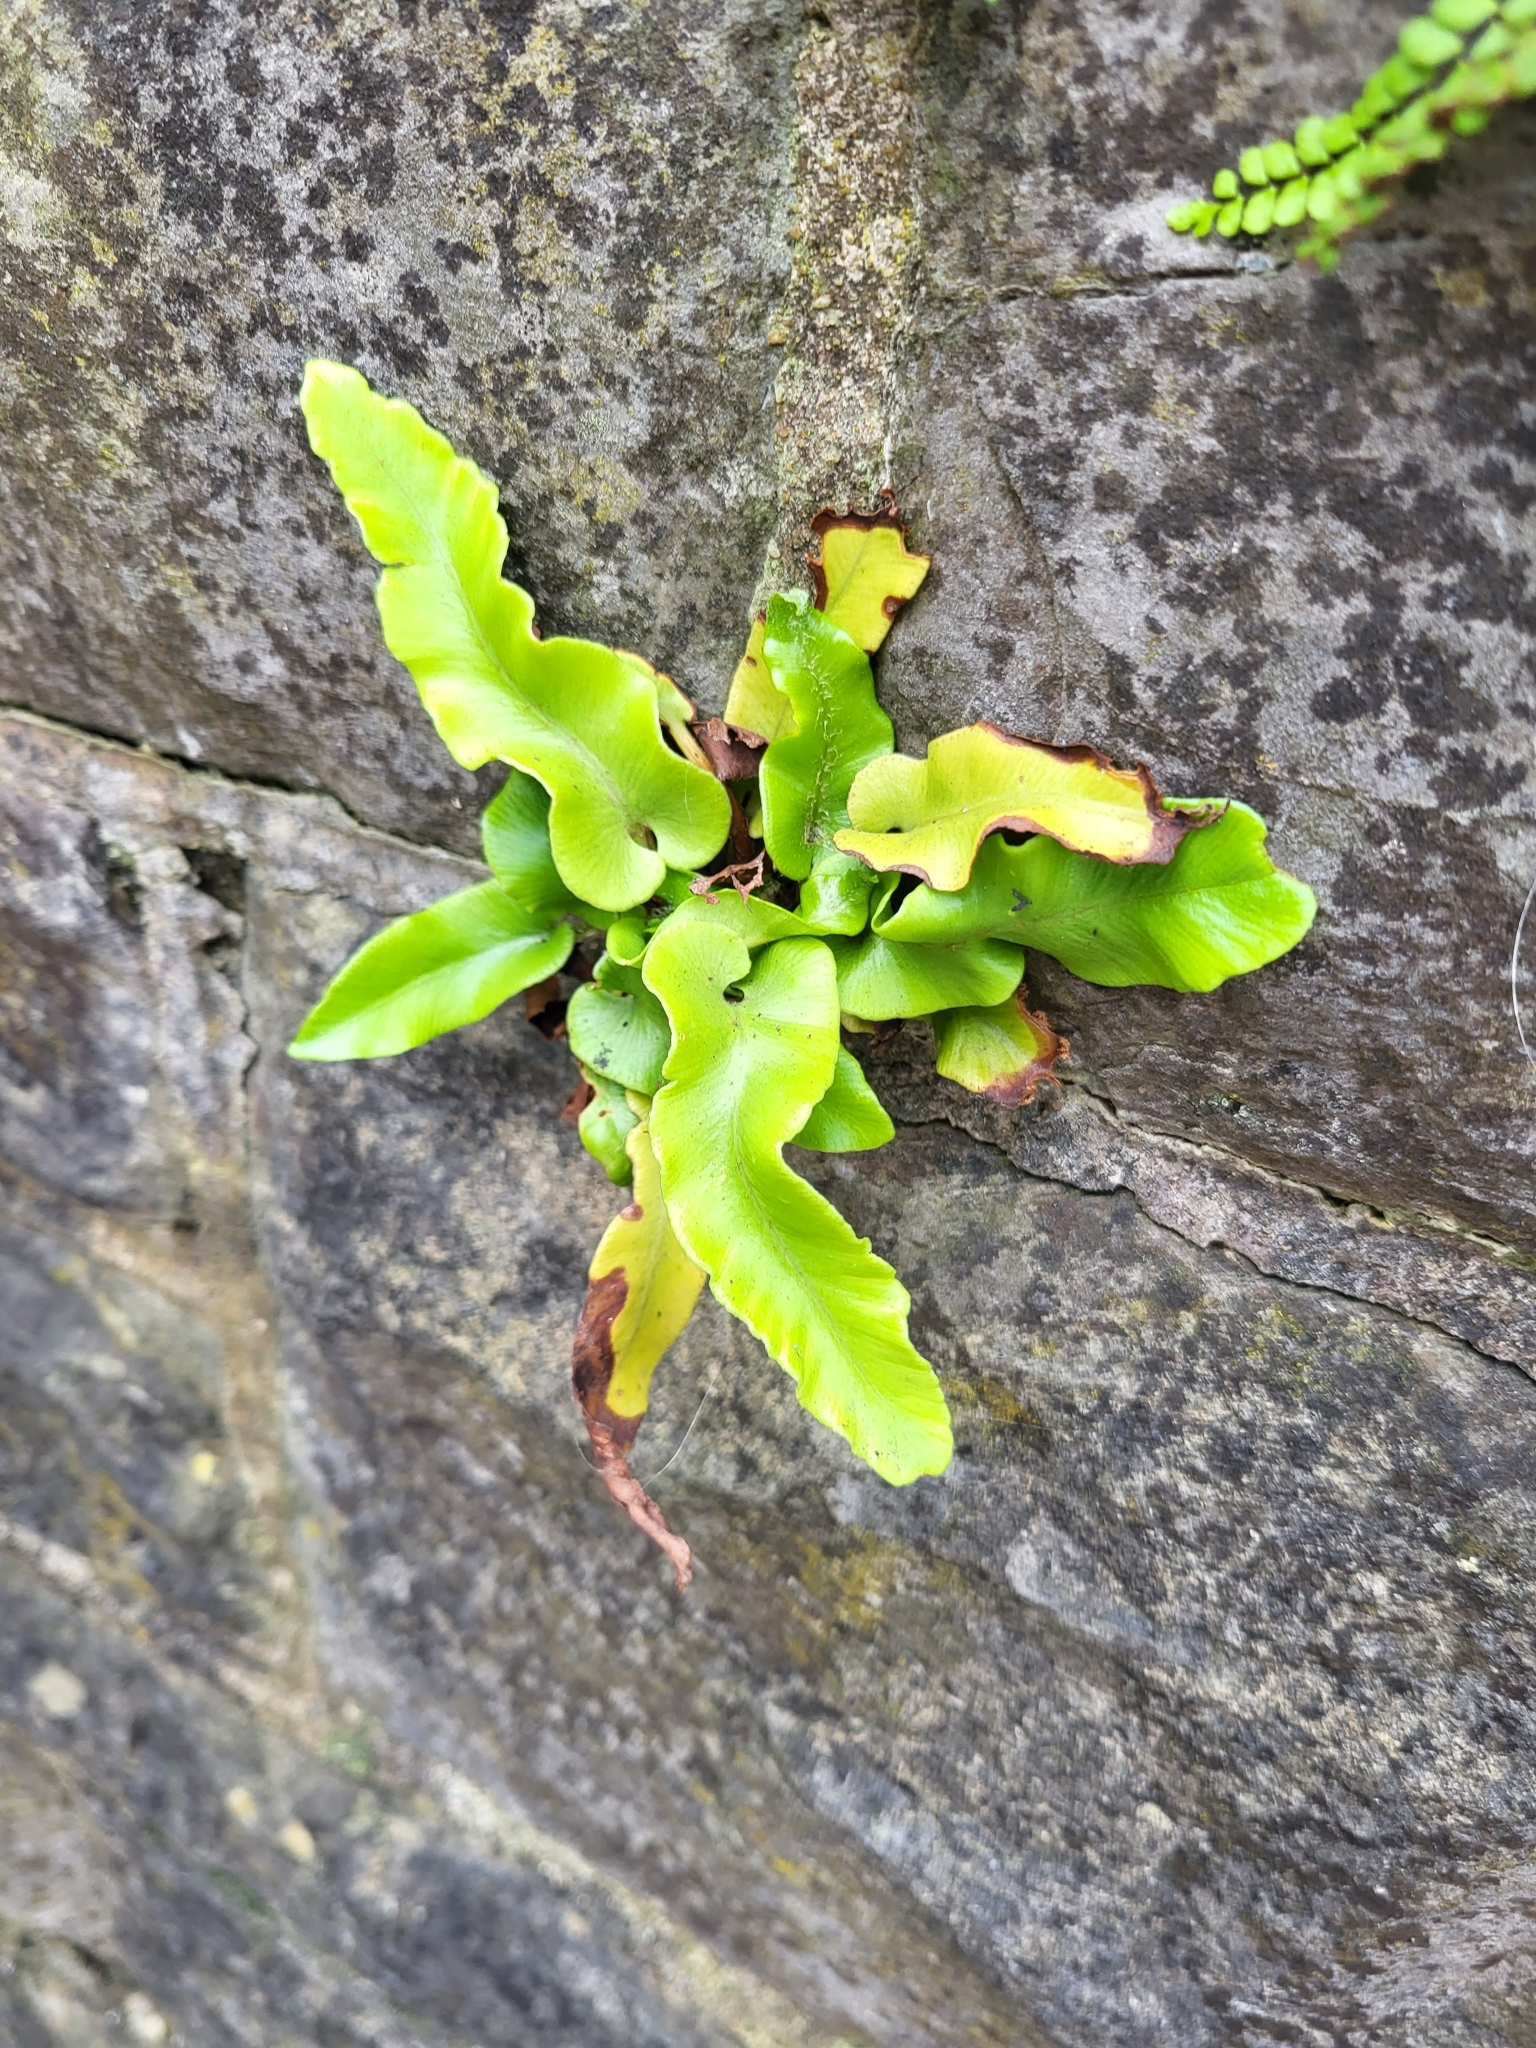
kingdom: Plantae
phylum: Tracheophyta
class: Polypodiopsida
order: Polypodiales
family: Aspleniaceae
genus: Asplenium
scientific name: Asplenium scolopendrium
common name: Hart's-tongue fern
